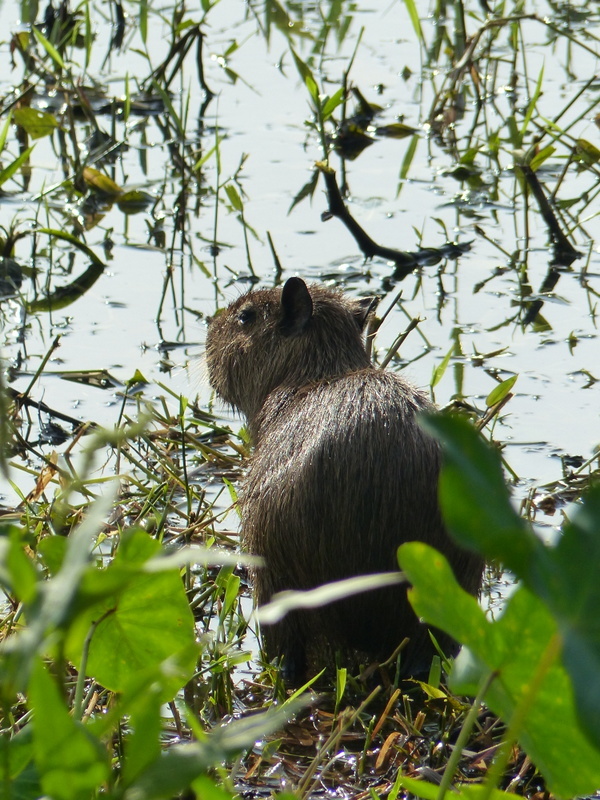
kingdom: Animalia
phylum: Chordata
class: Mammalia
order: Rodentia
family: Caviidae
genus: Hydrochoerus
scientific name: Hydrochoerus isthmius
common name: Lesser capybara
